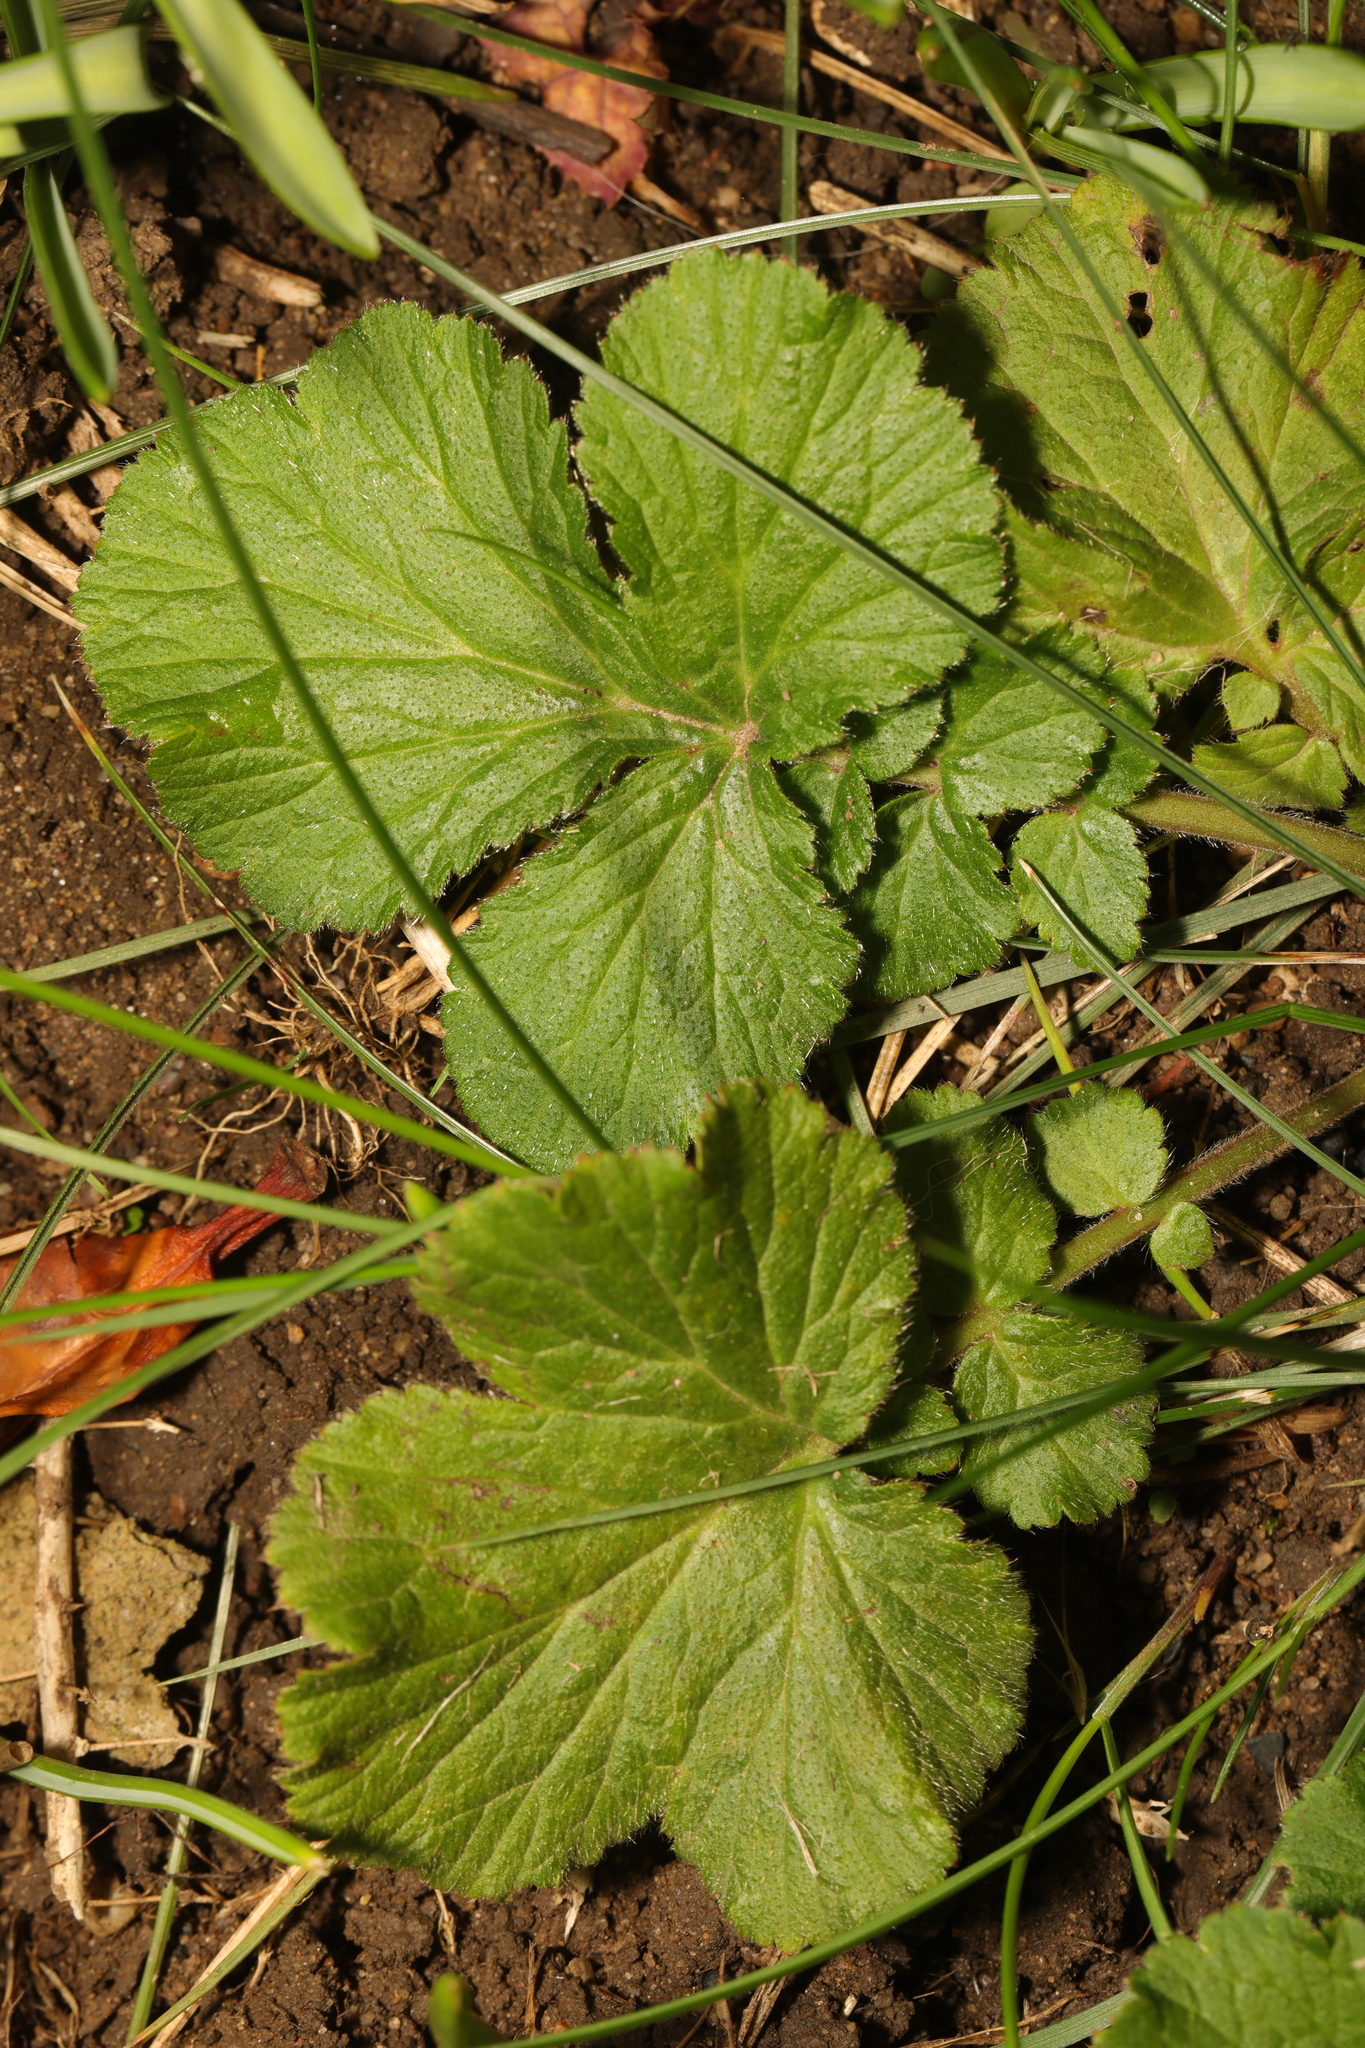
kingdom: Plantae
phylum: Tracheophyta
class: Magnoliopsida
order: Rosales
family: Rosaceae
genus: Geum
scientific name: Geum urbanum
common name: Wood avens
